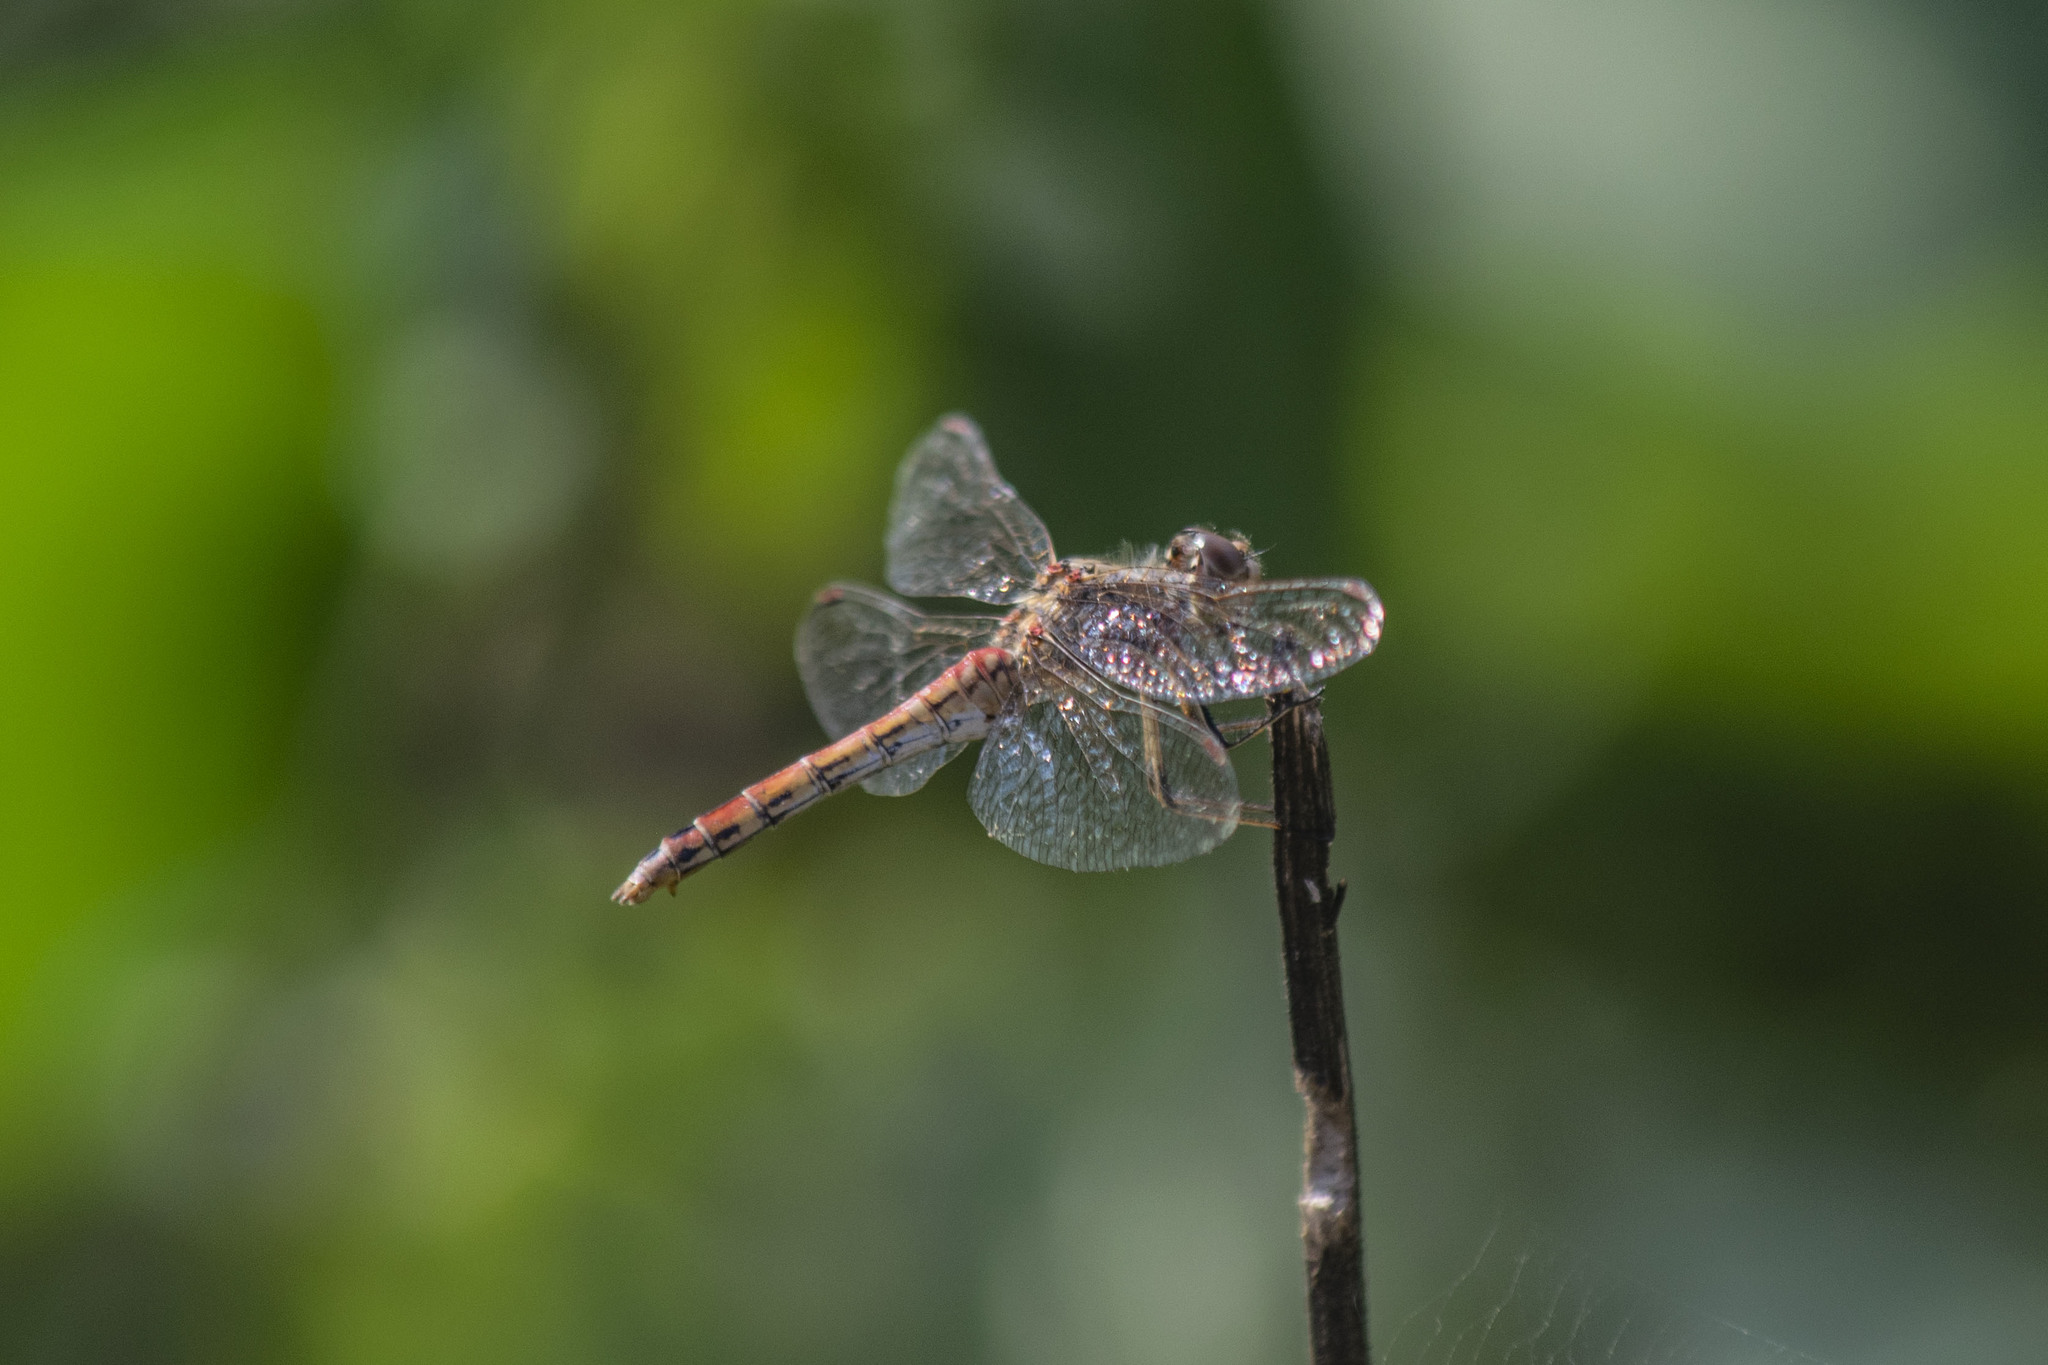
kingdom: Animalia
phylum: Arthropoda
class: Insecta
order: Odonata
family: Libellulidae
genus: Sympetrum
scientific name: Sympetrum vulgatum
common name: Vagrant darter
